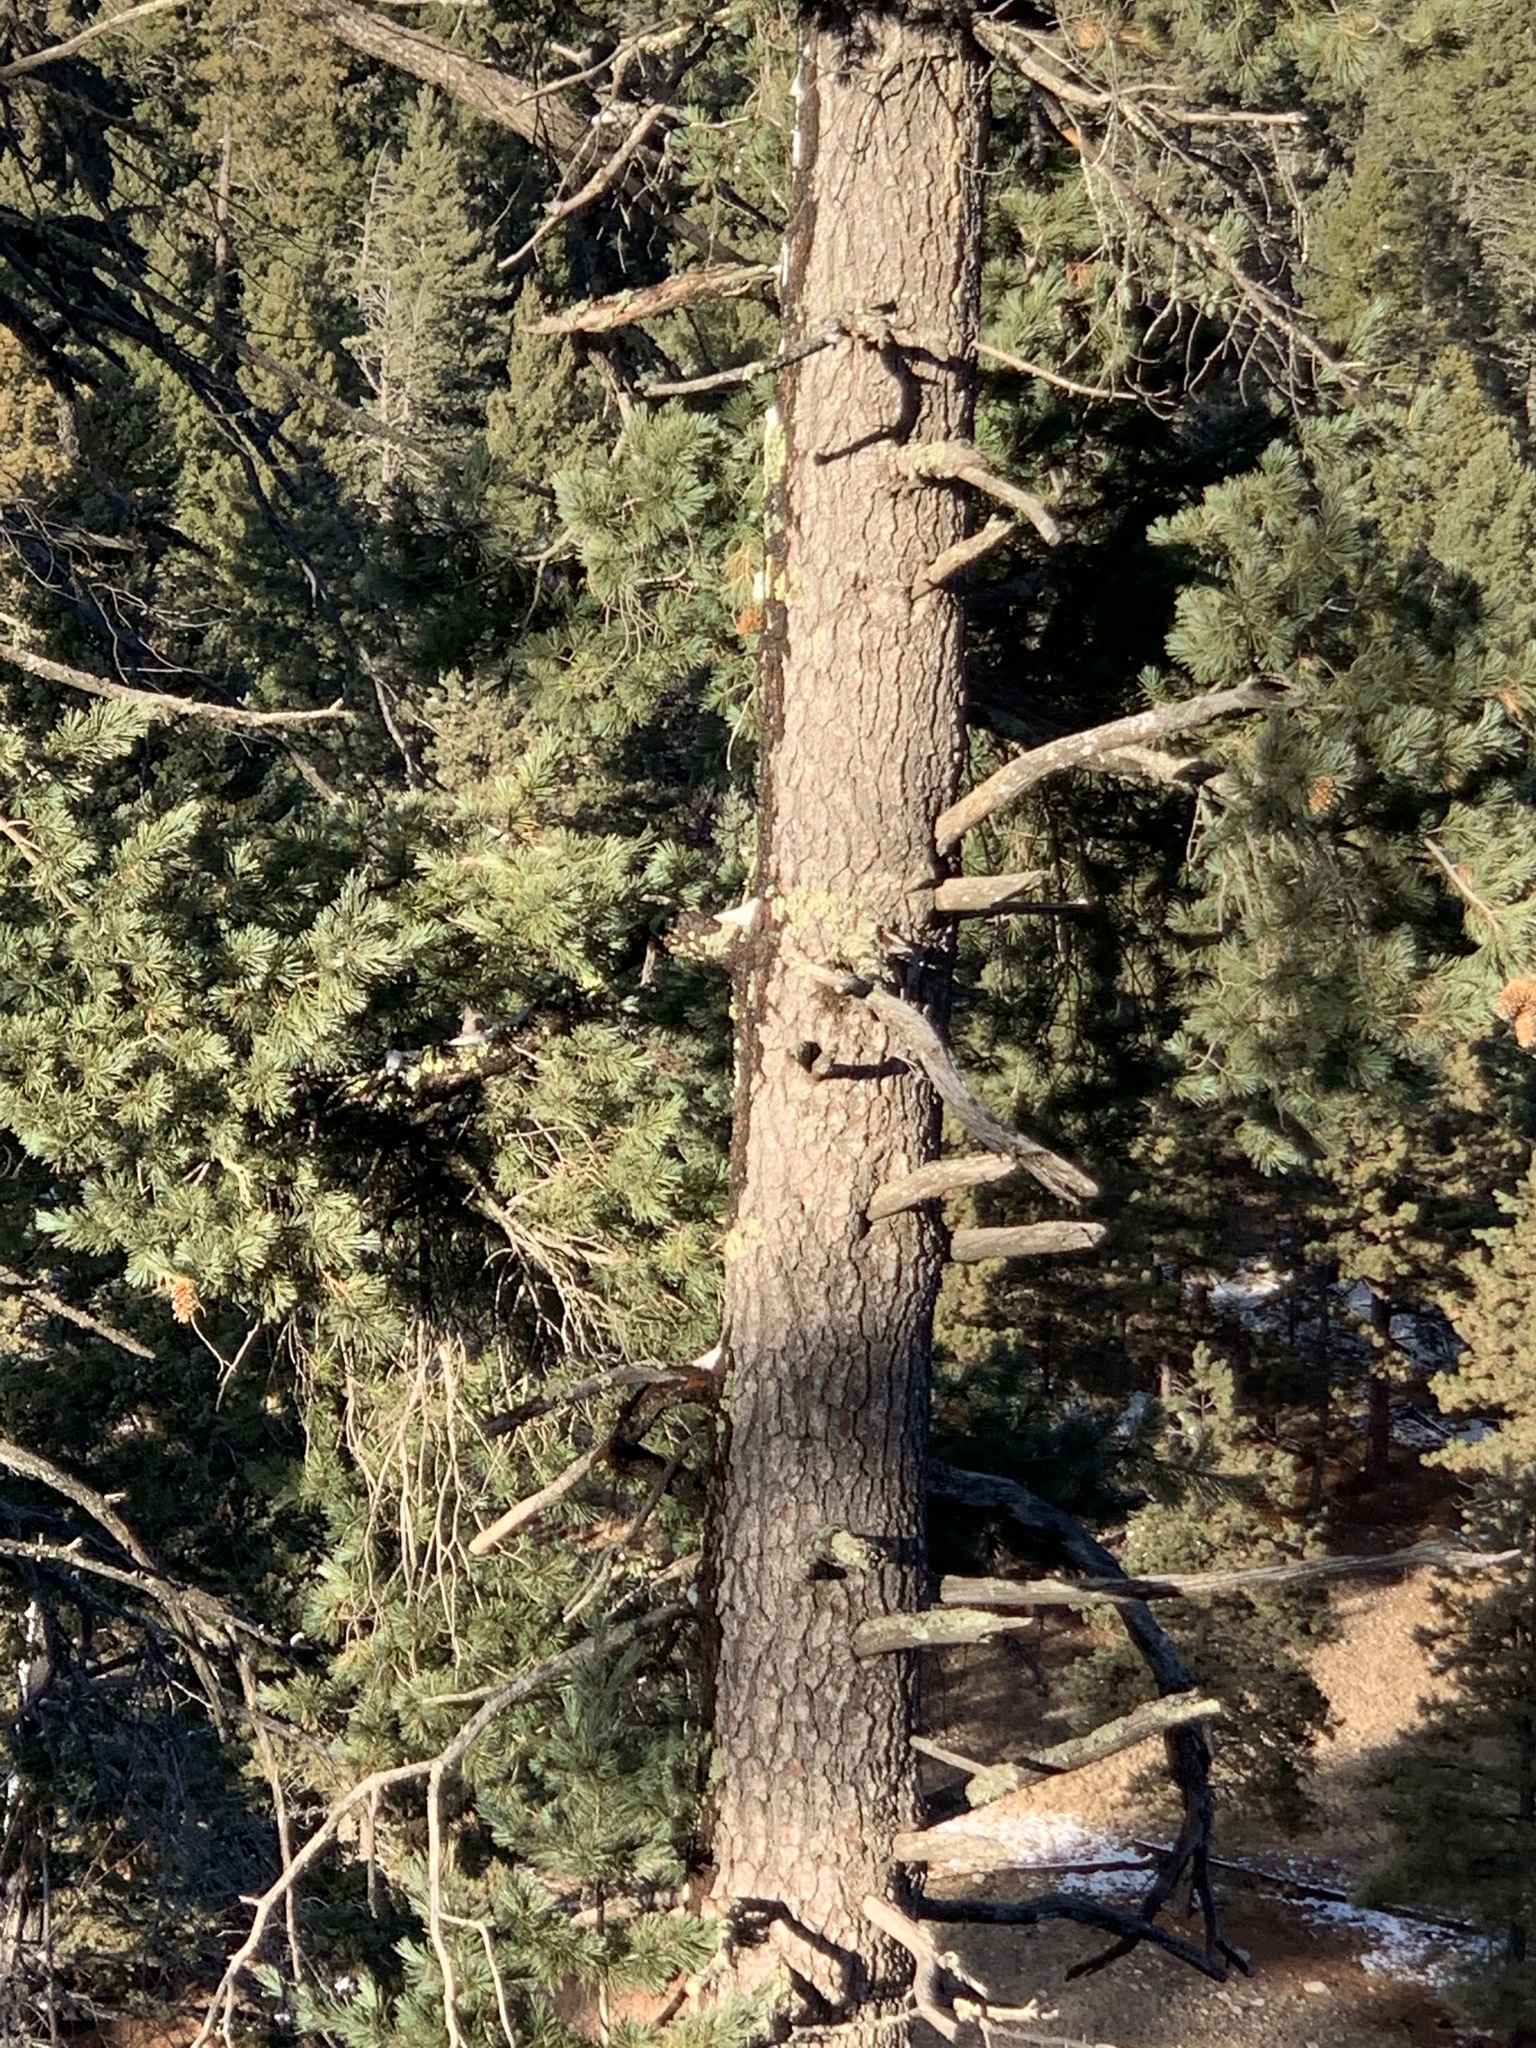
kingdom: Plantae
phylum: Tracheophyta
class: Pinopsida
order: Pinales
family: Pinaceae
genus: Pinus
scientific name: Pinus strobiformis
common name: Southwestern white pine
